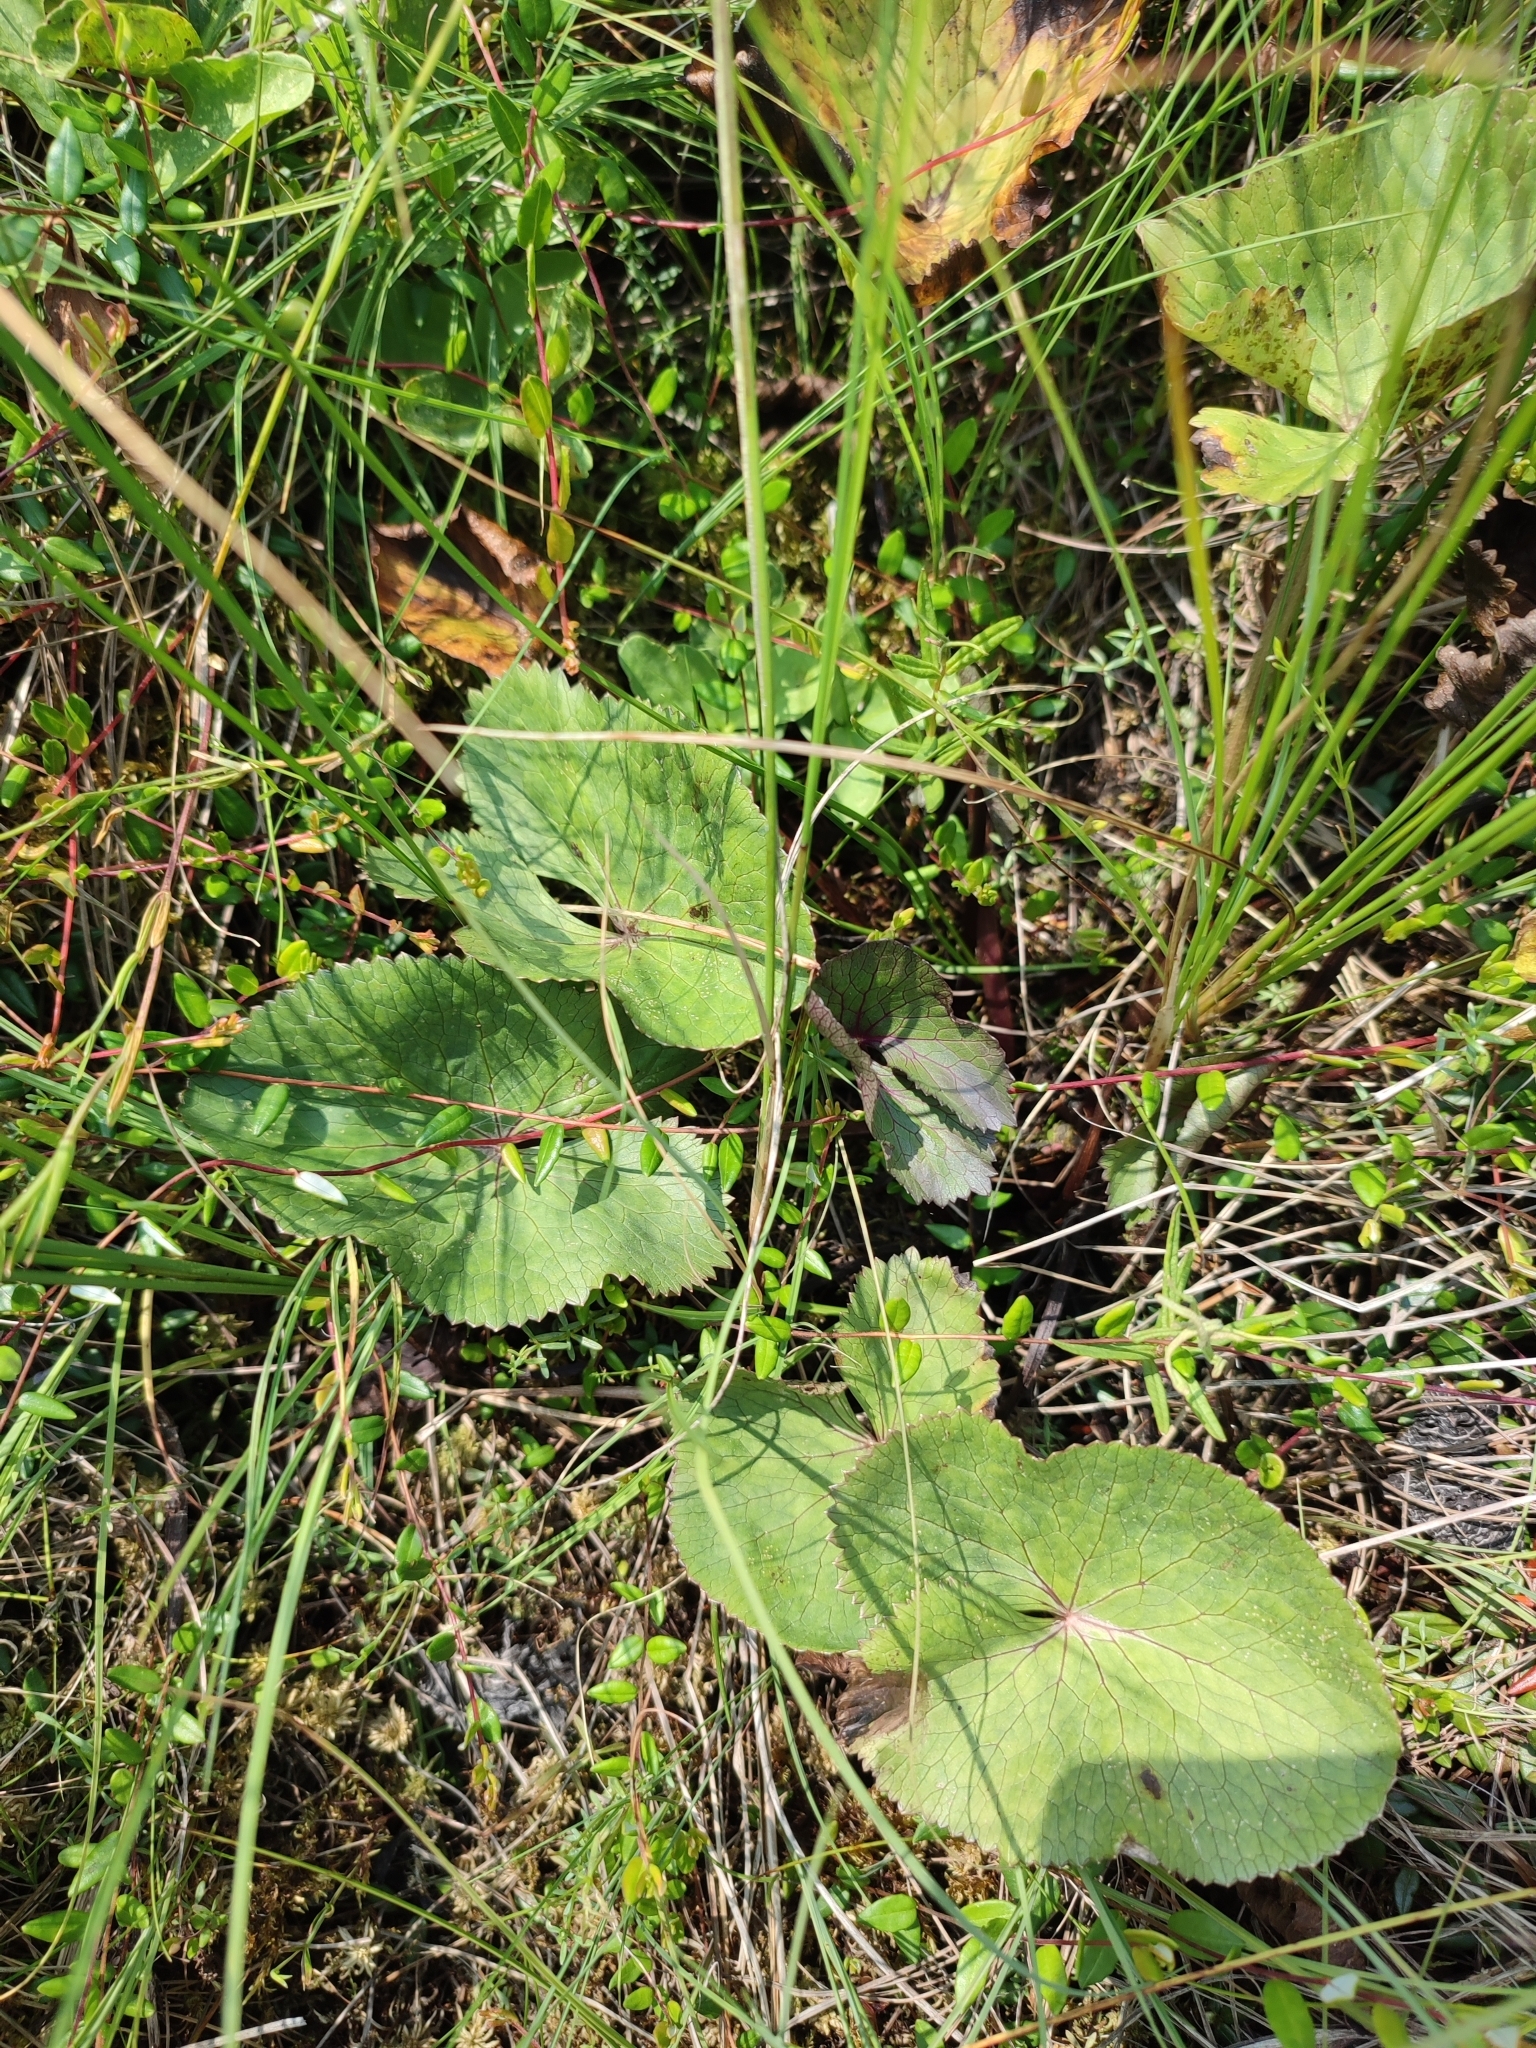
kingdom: Plantae
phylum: Tracheophyta
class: Magnoliopsida
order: Ranunculales
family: Ranunculaceae
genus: Caltha
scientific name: Caltha palustris
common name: Marsh marigold
